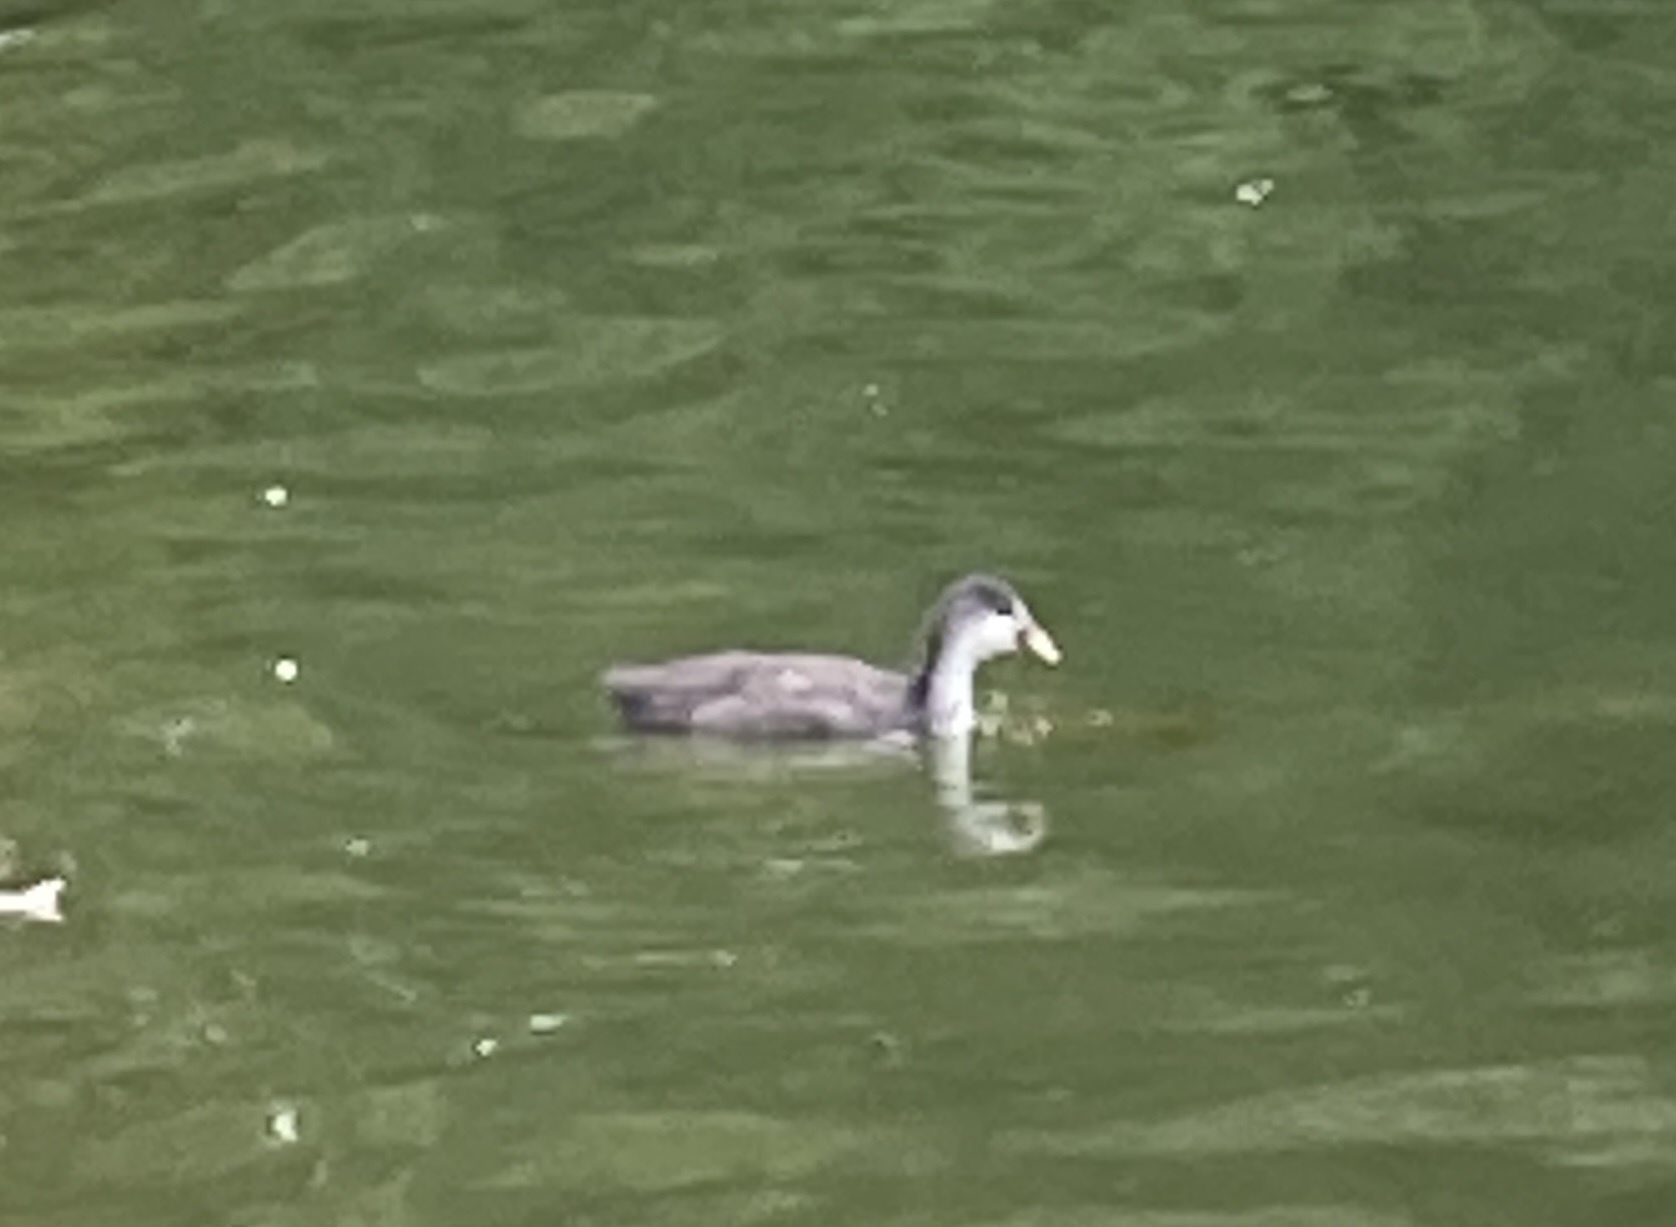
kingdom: Animalia
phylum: Chordata
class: Aves
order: Gruiformes
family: Rallidae
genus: Fulica
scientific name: Fulica atra
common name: Eurasian coot
